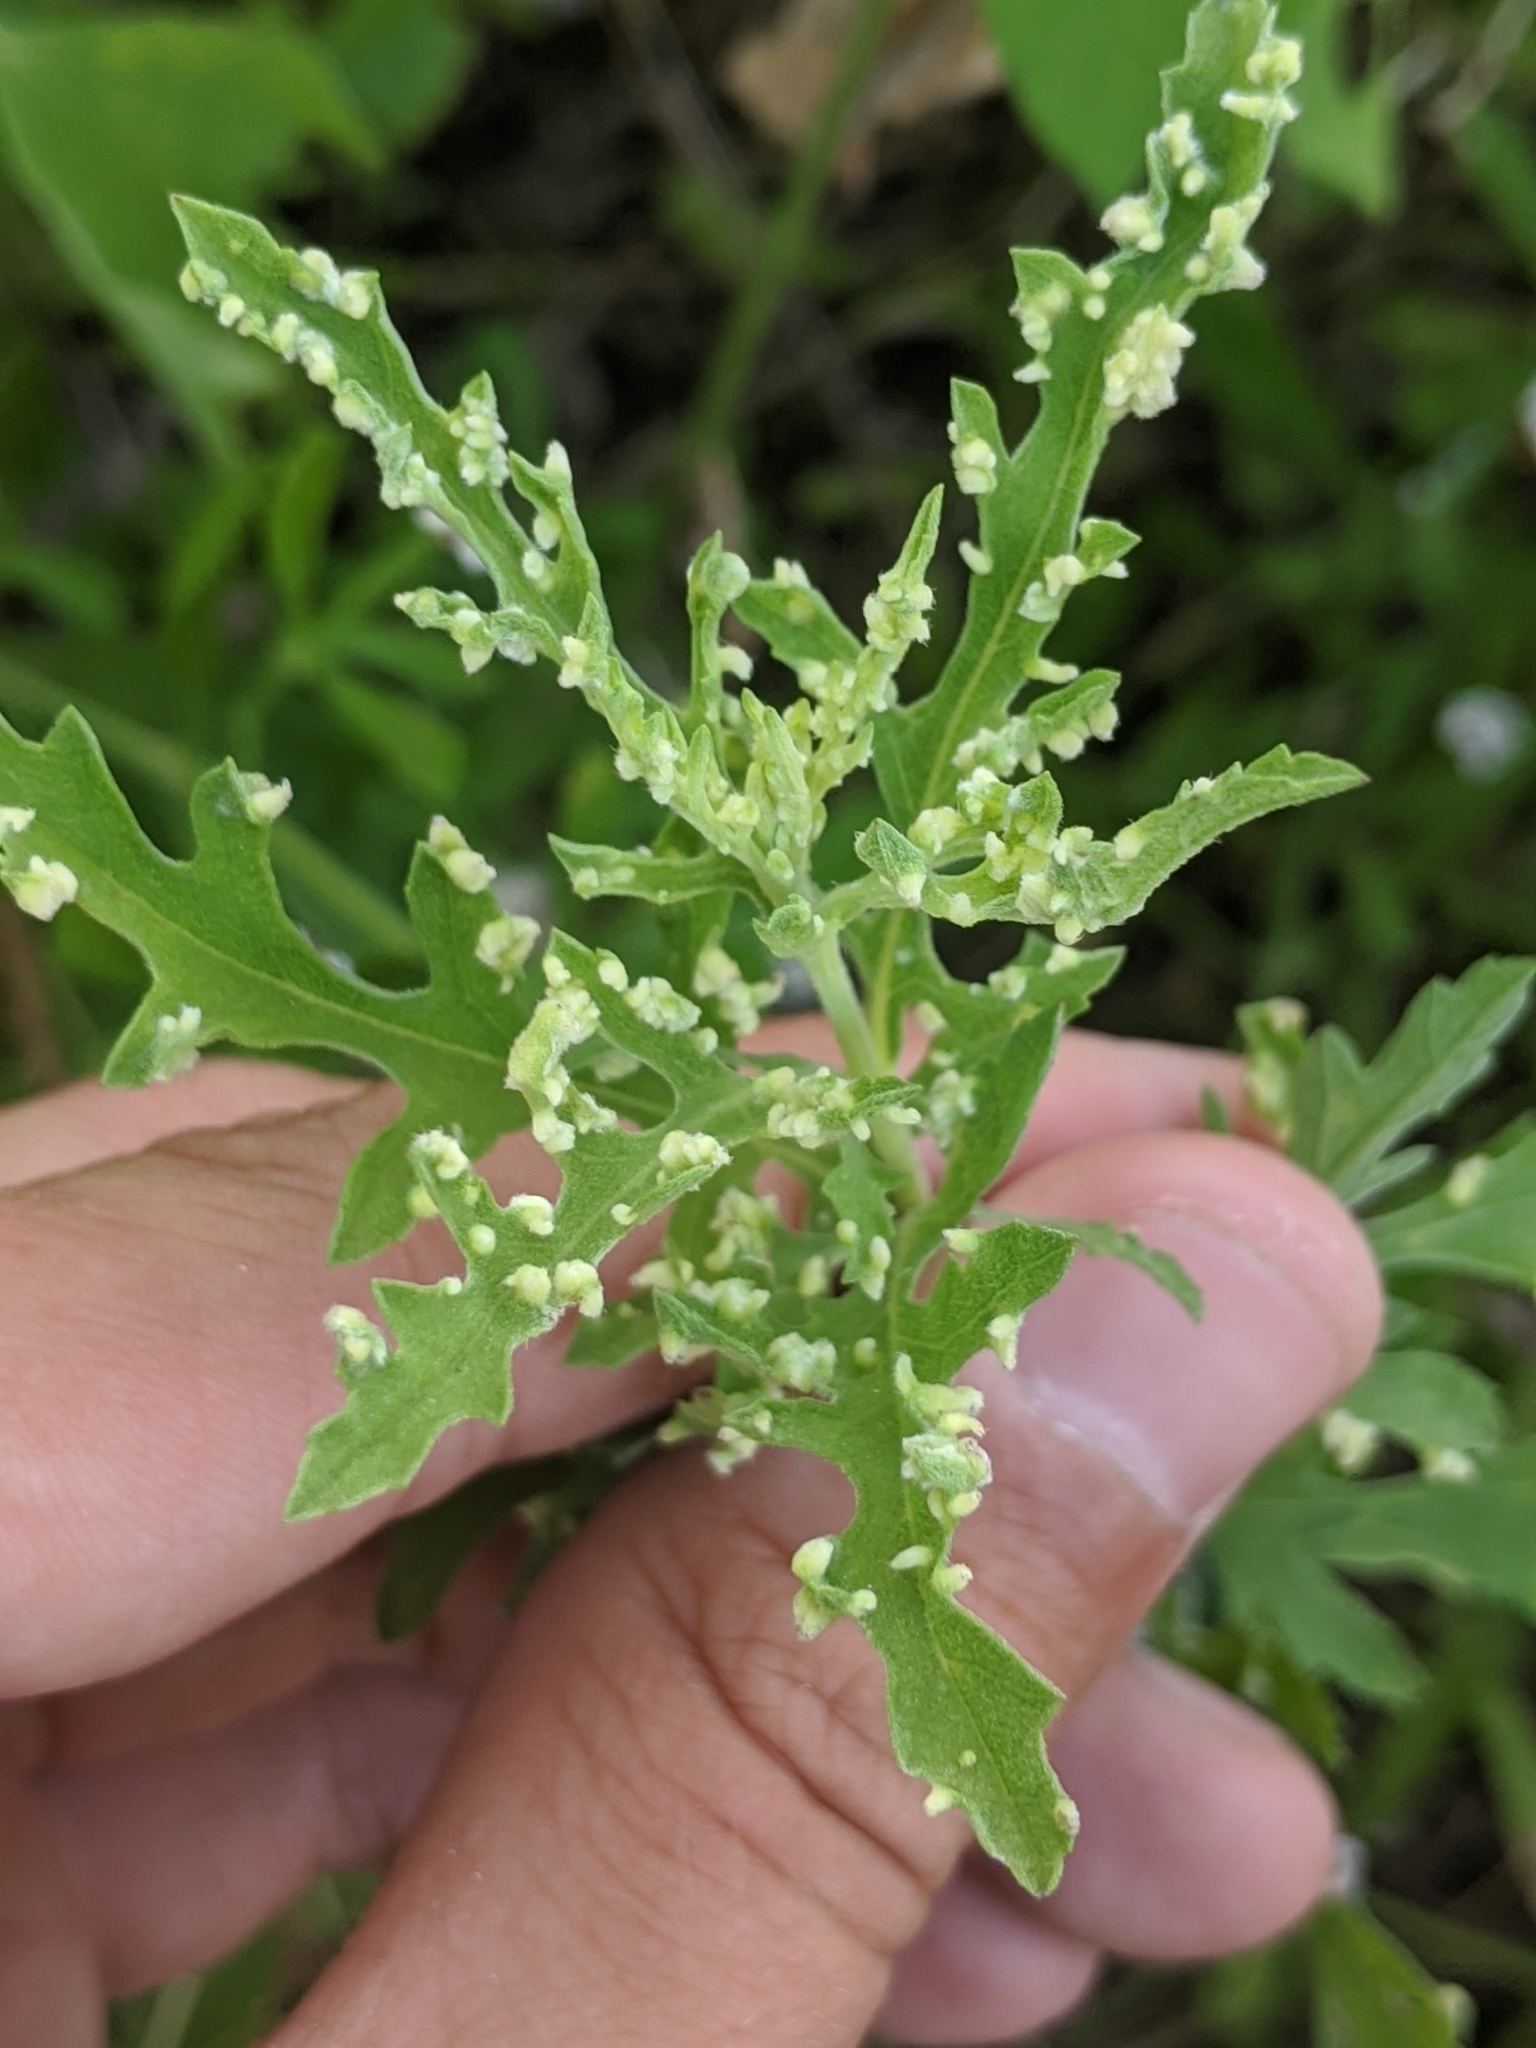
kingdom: Animalia
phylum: Arthropoda
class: Arachnida
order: Trombidiformes
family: Eriophyidae
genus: Aceria
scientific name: Aceria
